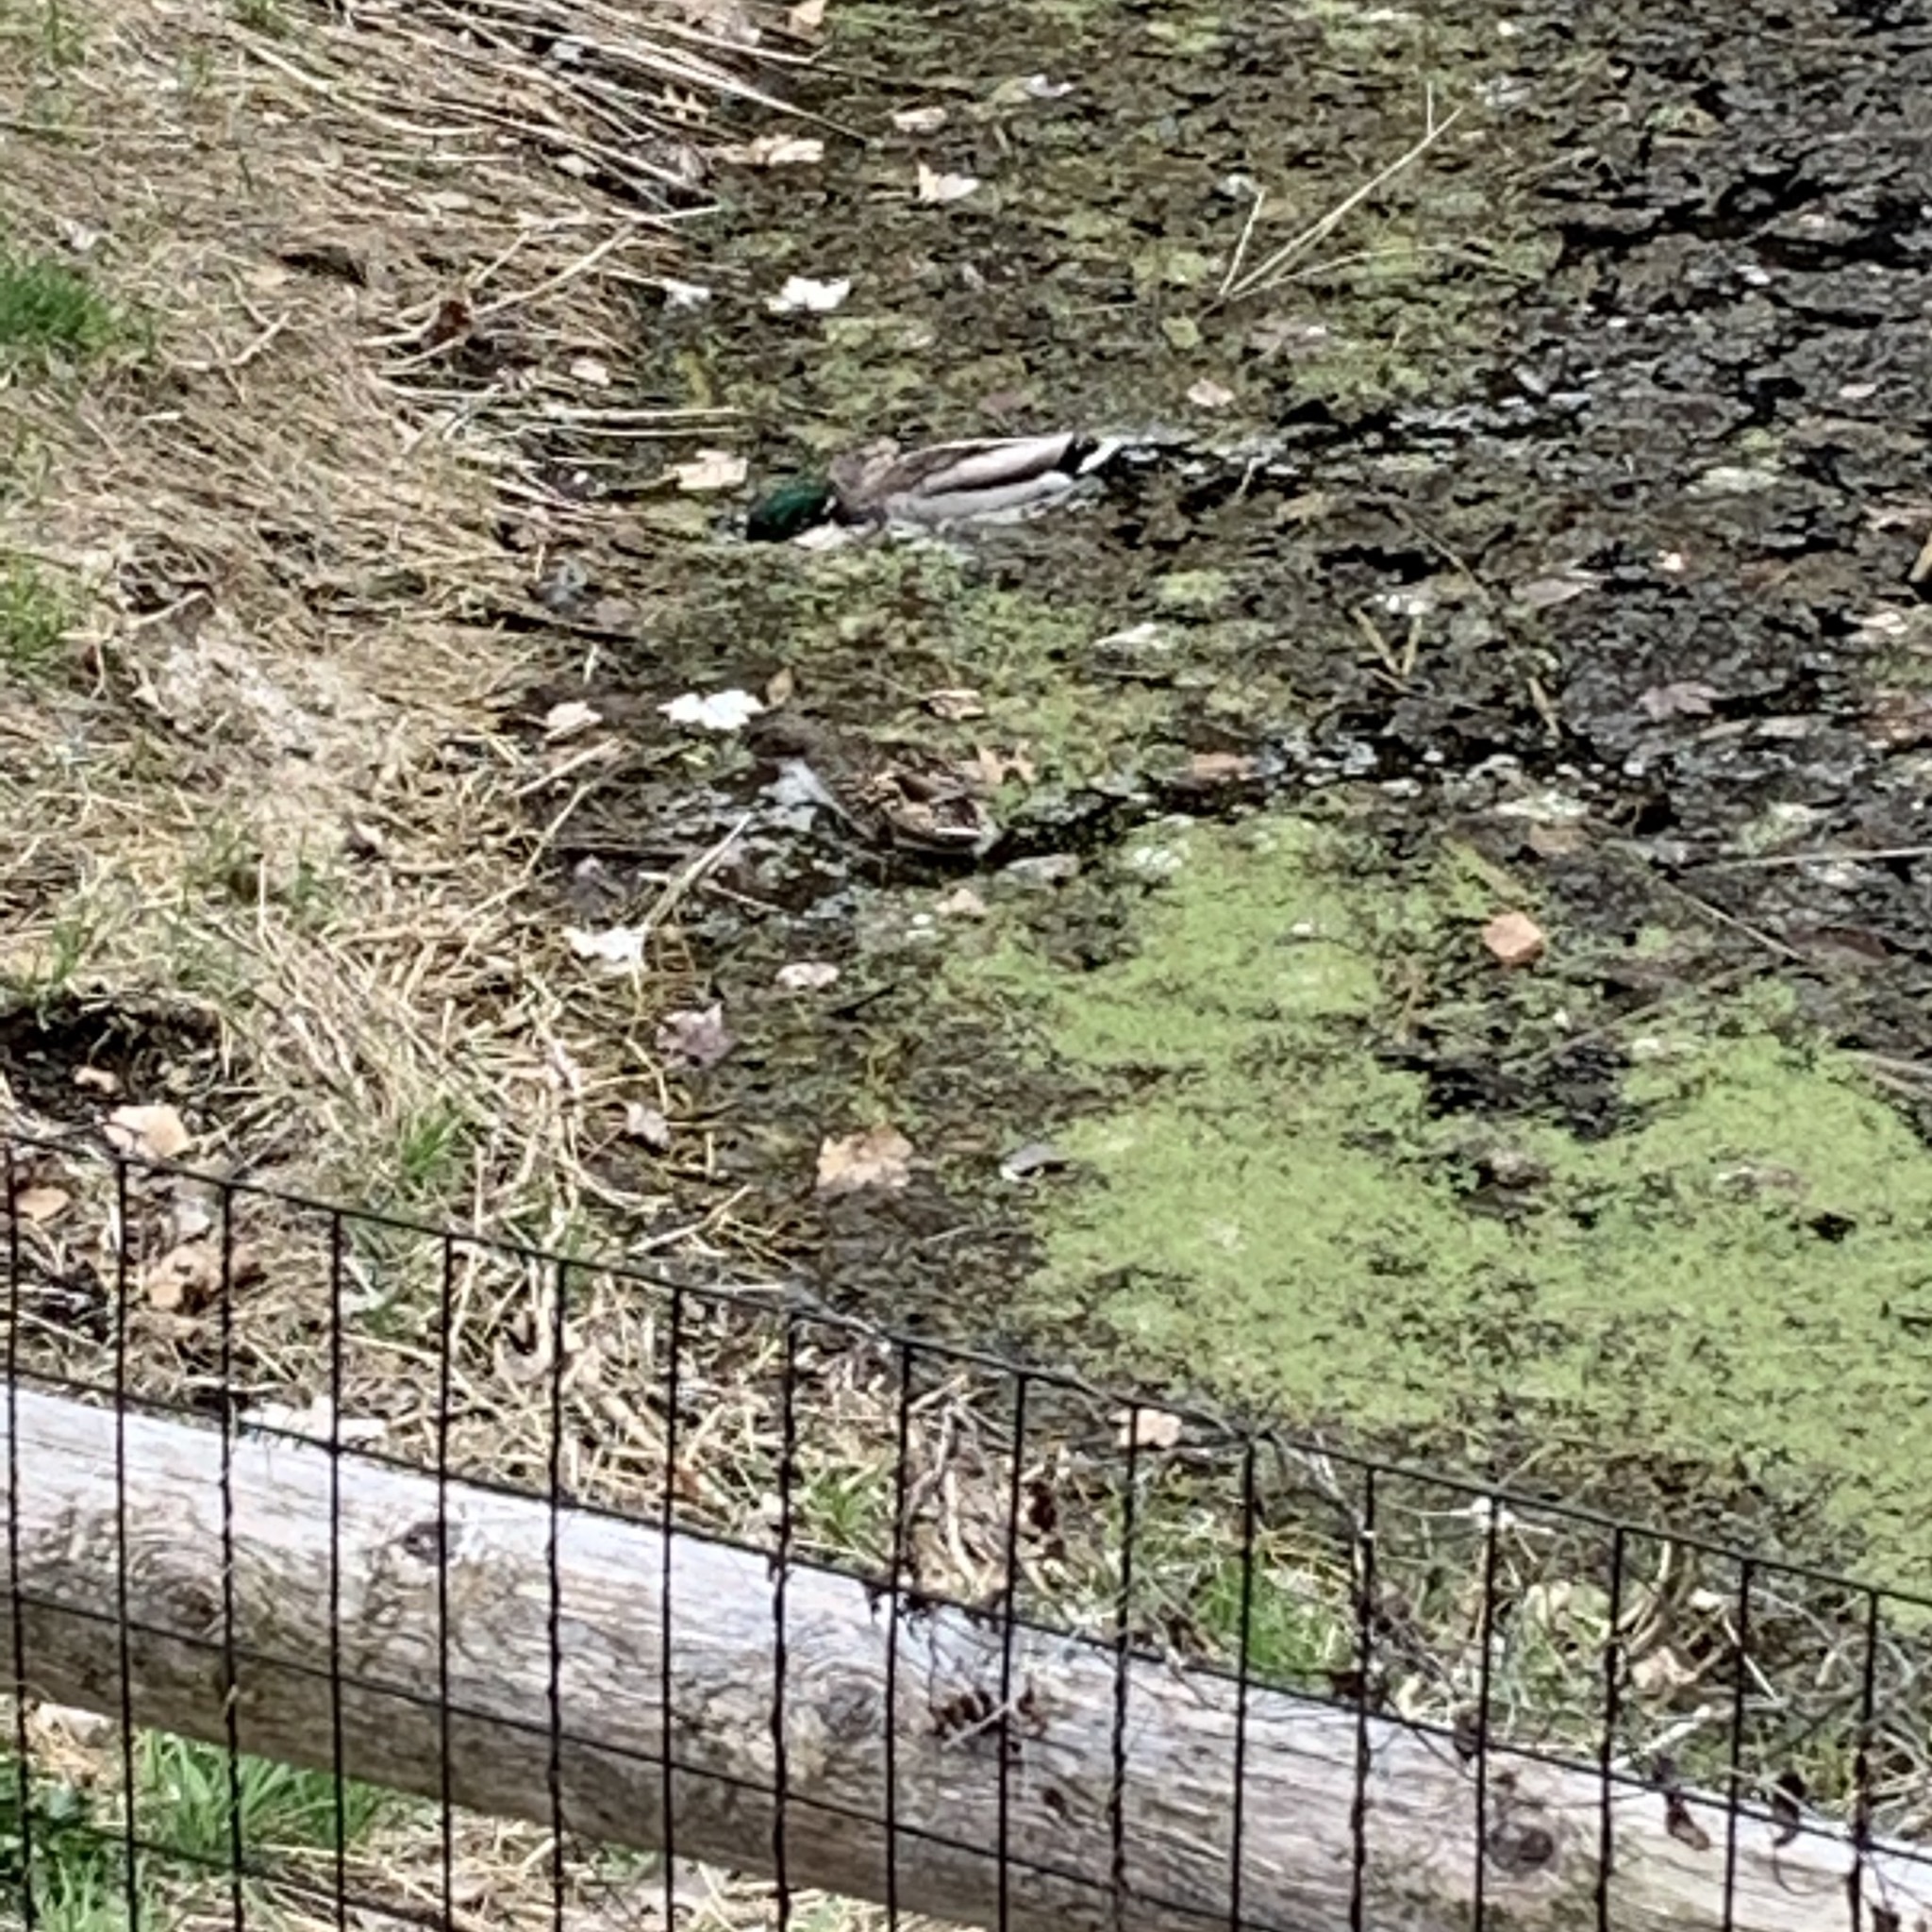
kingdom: Animalia
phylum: Chordata
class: Aves
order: Anseriformes
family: Anatidae
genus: Anas
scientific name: Anas platyrhynchos
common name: Mallard
